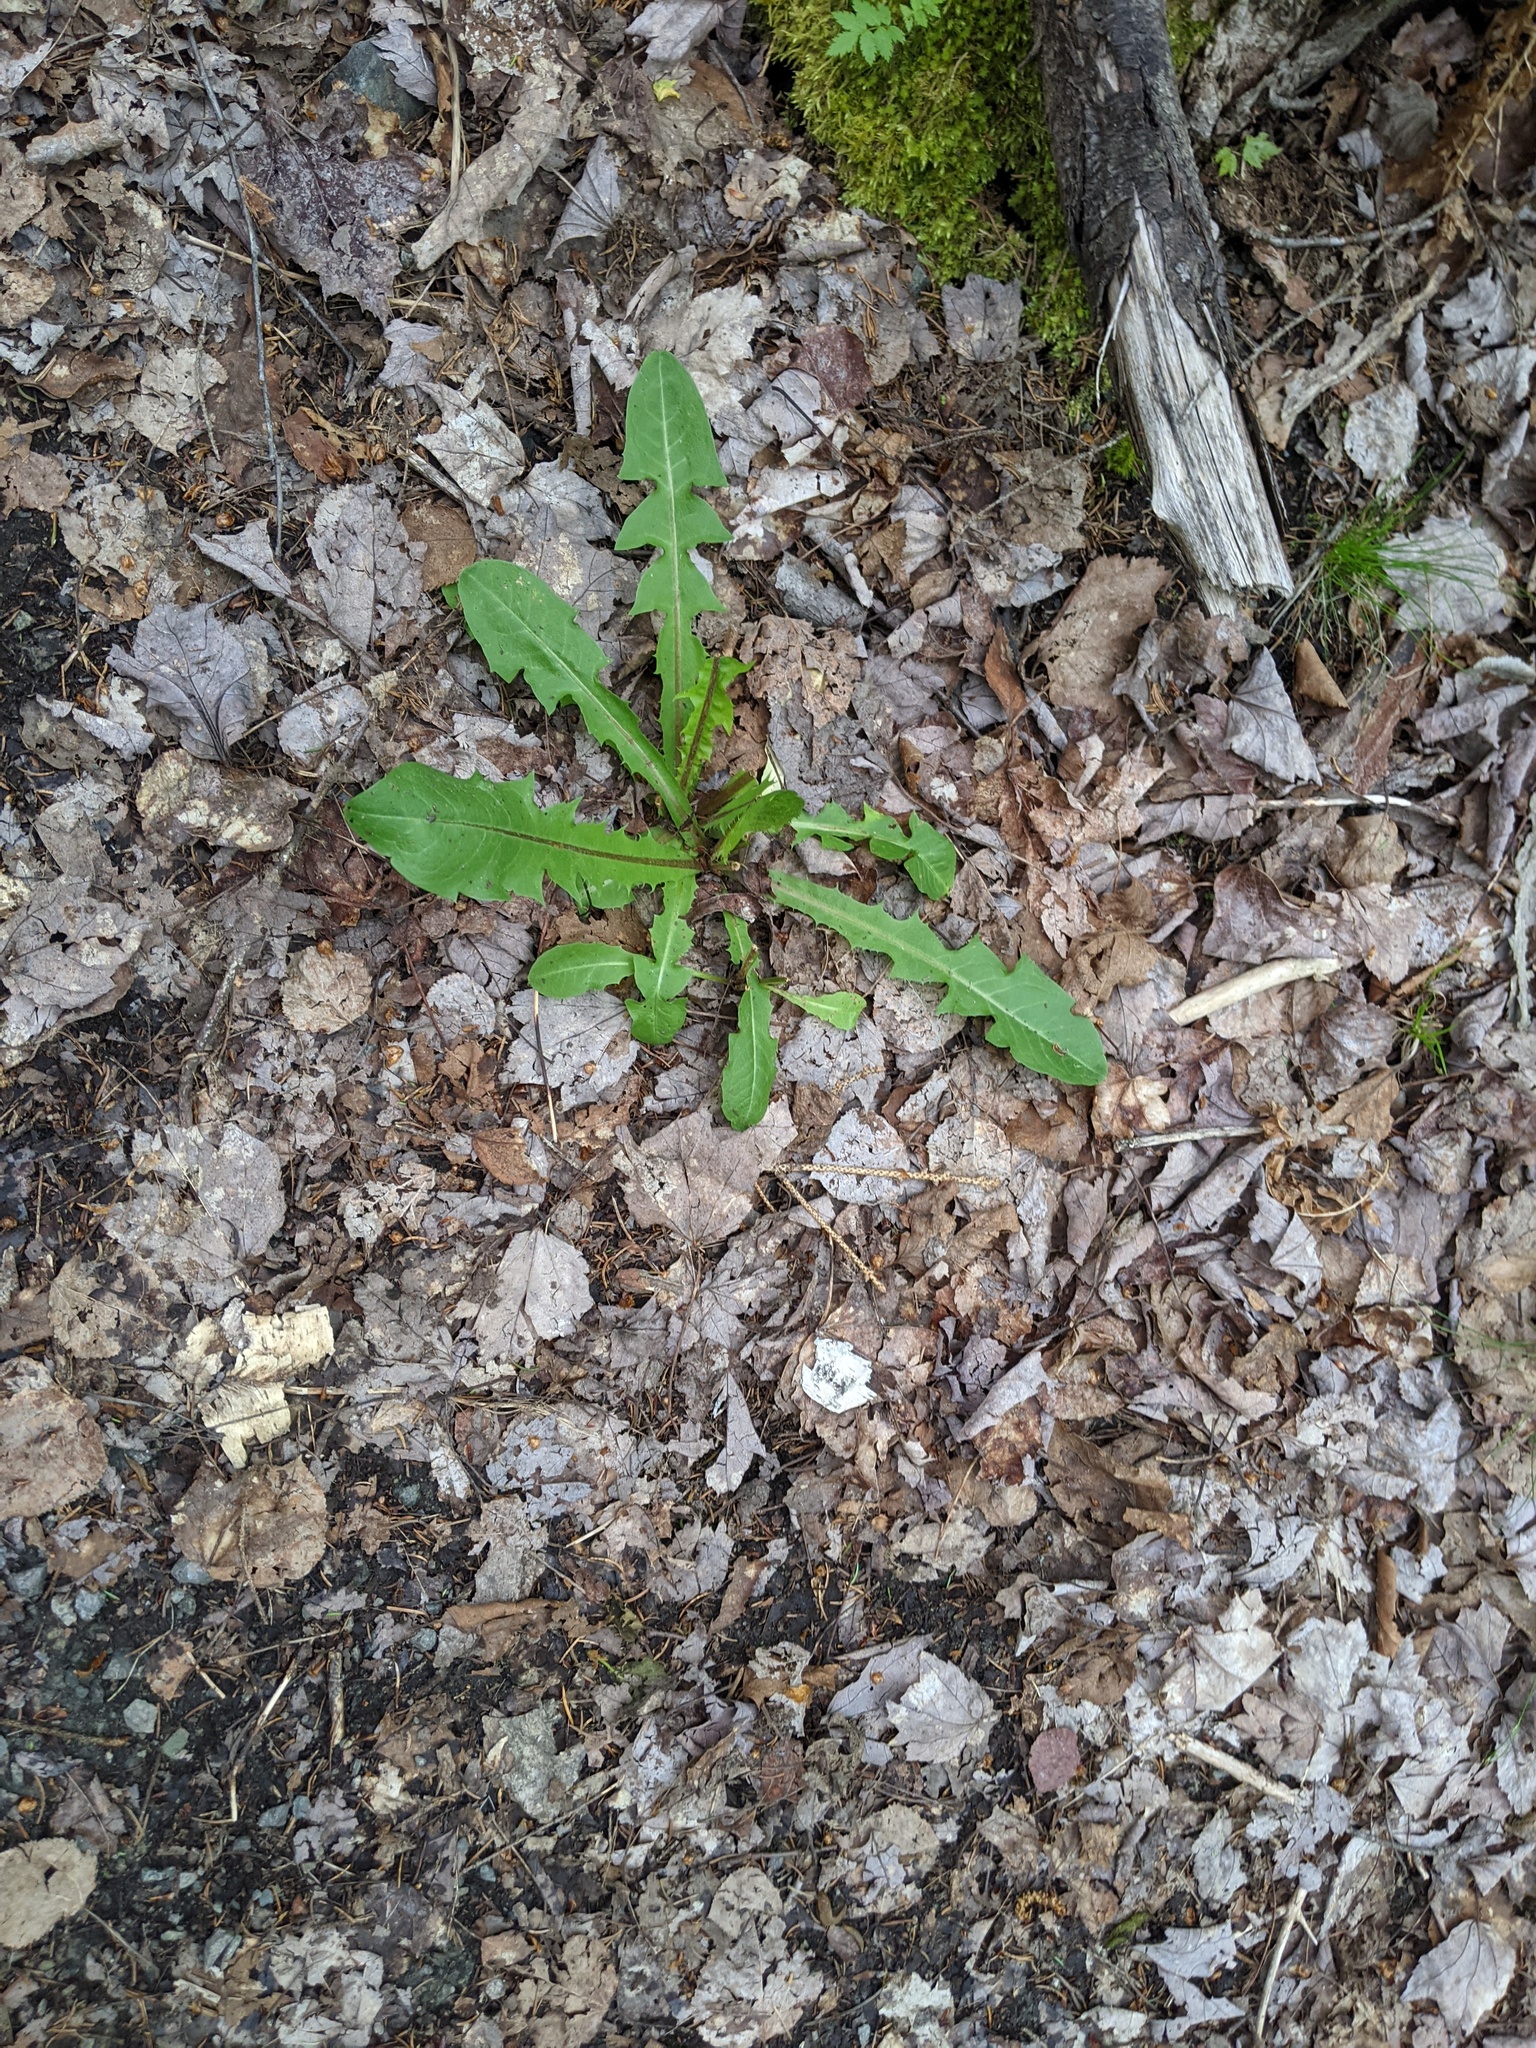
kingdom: Plantae
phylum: Tracheophyta
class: Magnoliopsida
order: Asterales
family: Asteraceae
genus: Taraxacum
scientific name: Taraxacum officinale
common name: Common dandelion
